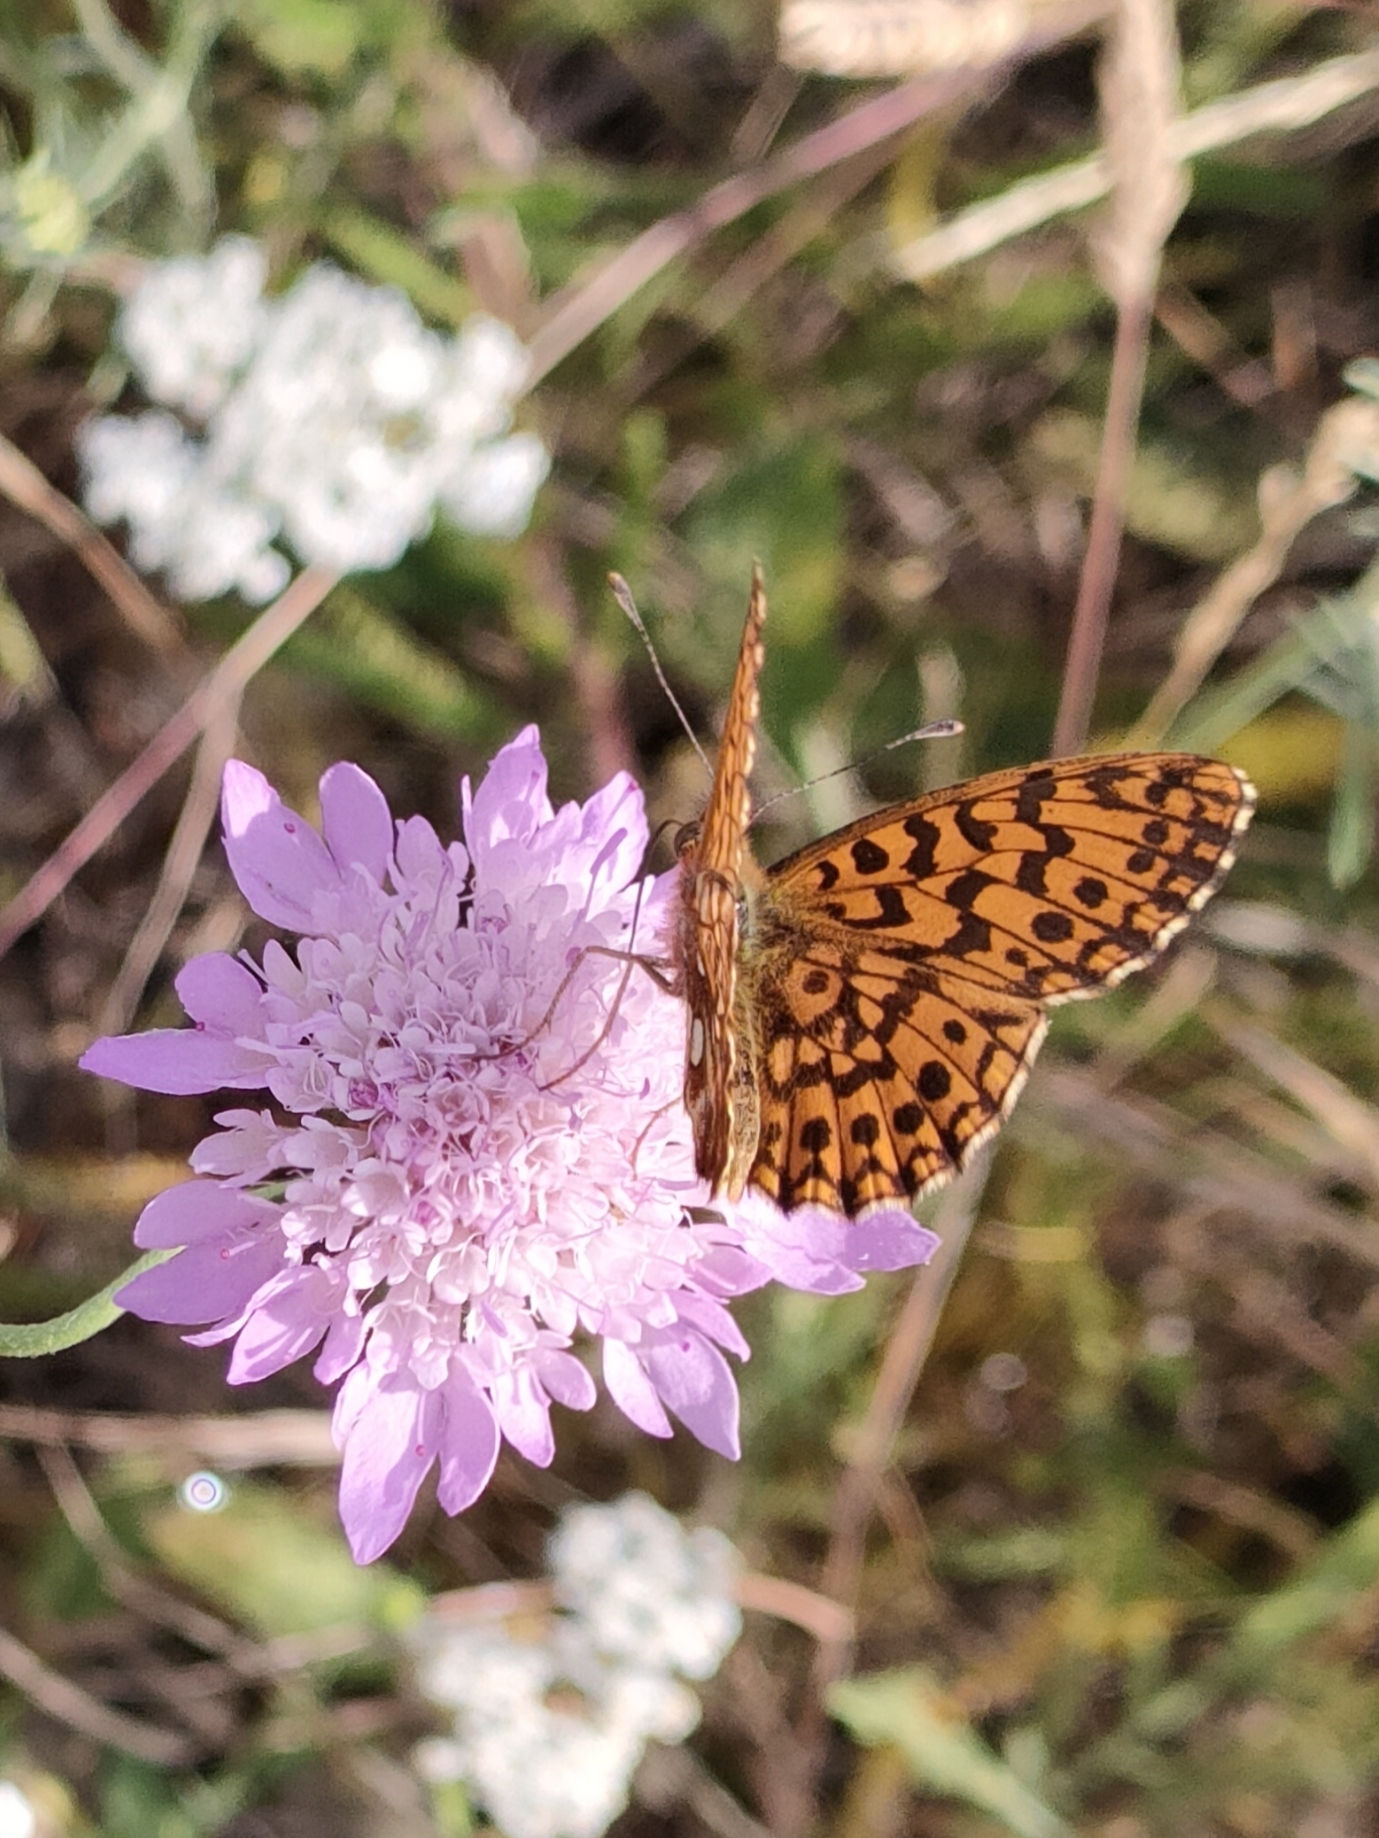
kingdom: Animalia
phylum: Arthropoda
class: Insecta
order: Lepidoptera
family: Nymphalidae
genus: Boloria
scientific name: Boloria dia
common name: Weaver's fritillary
